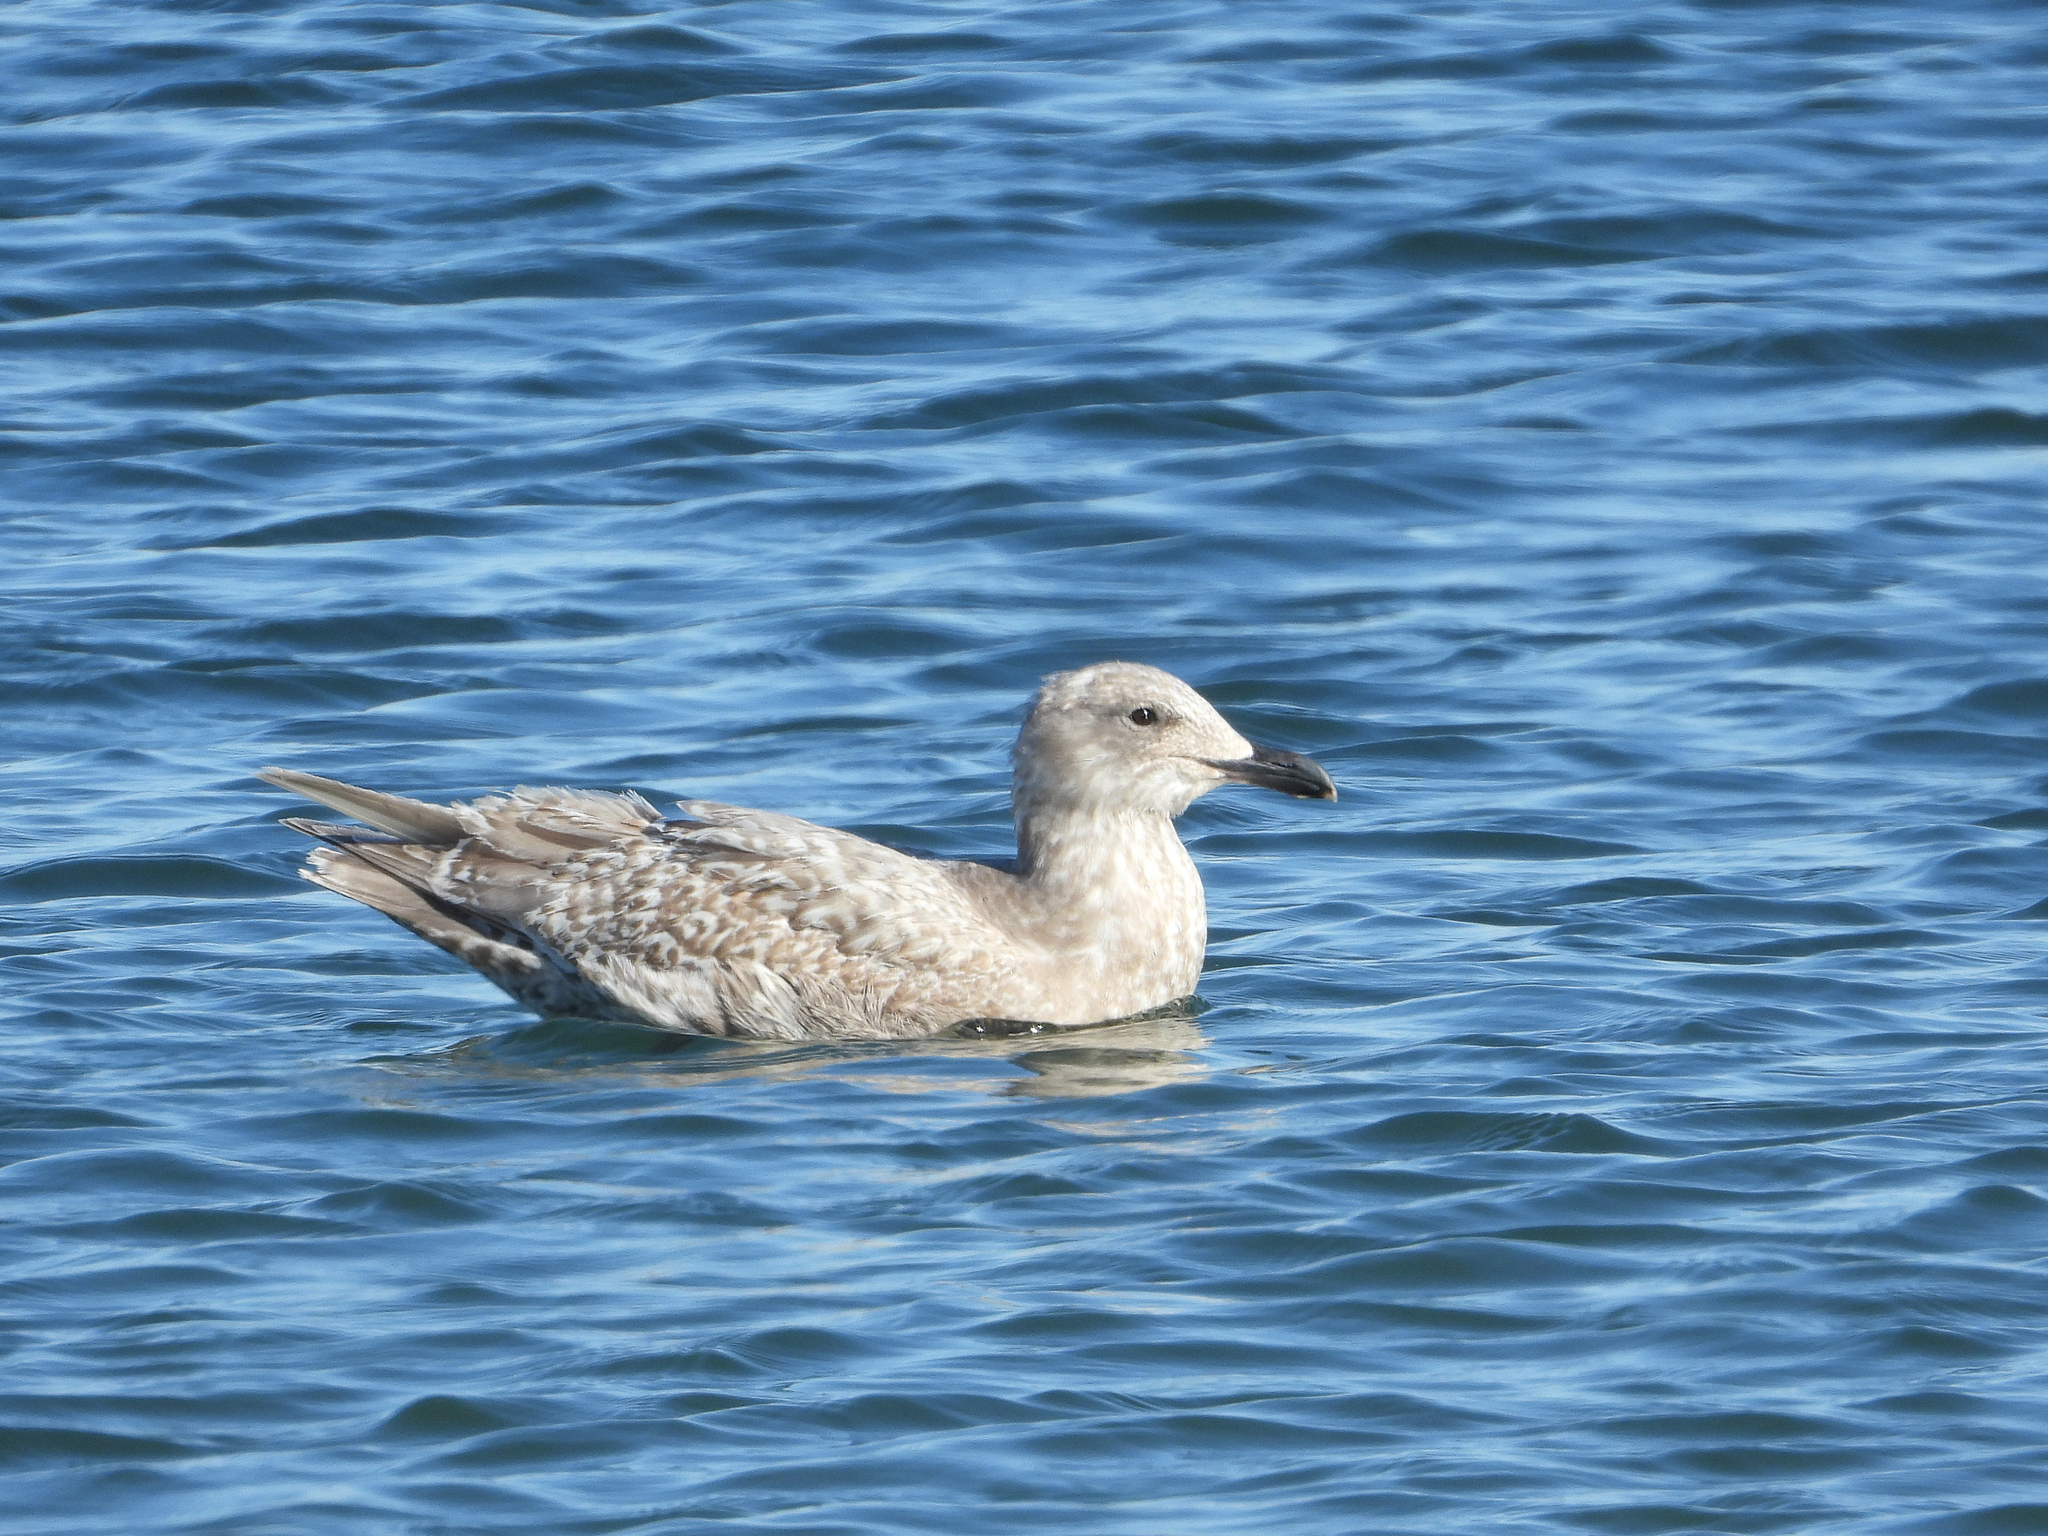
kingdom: Animalia
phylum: Chordata
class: Aves
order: Charadriiformes
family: Laridae
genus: Larus
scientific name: Larus glaucescens
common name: Glaucous-winged gull
